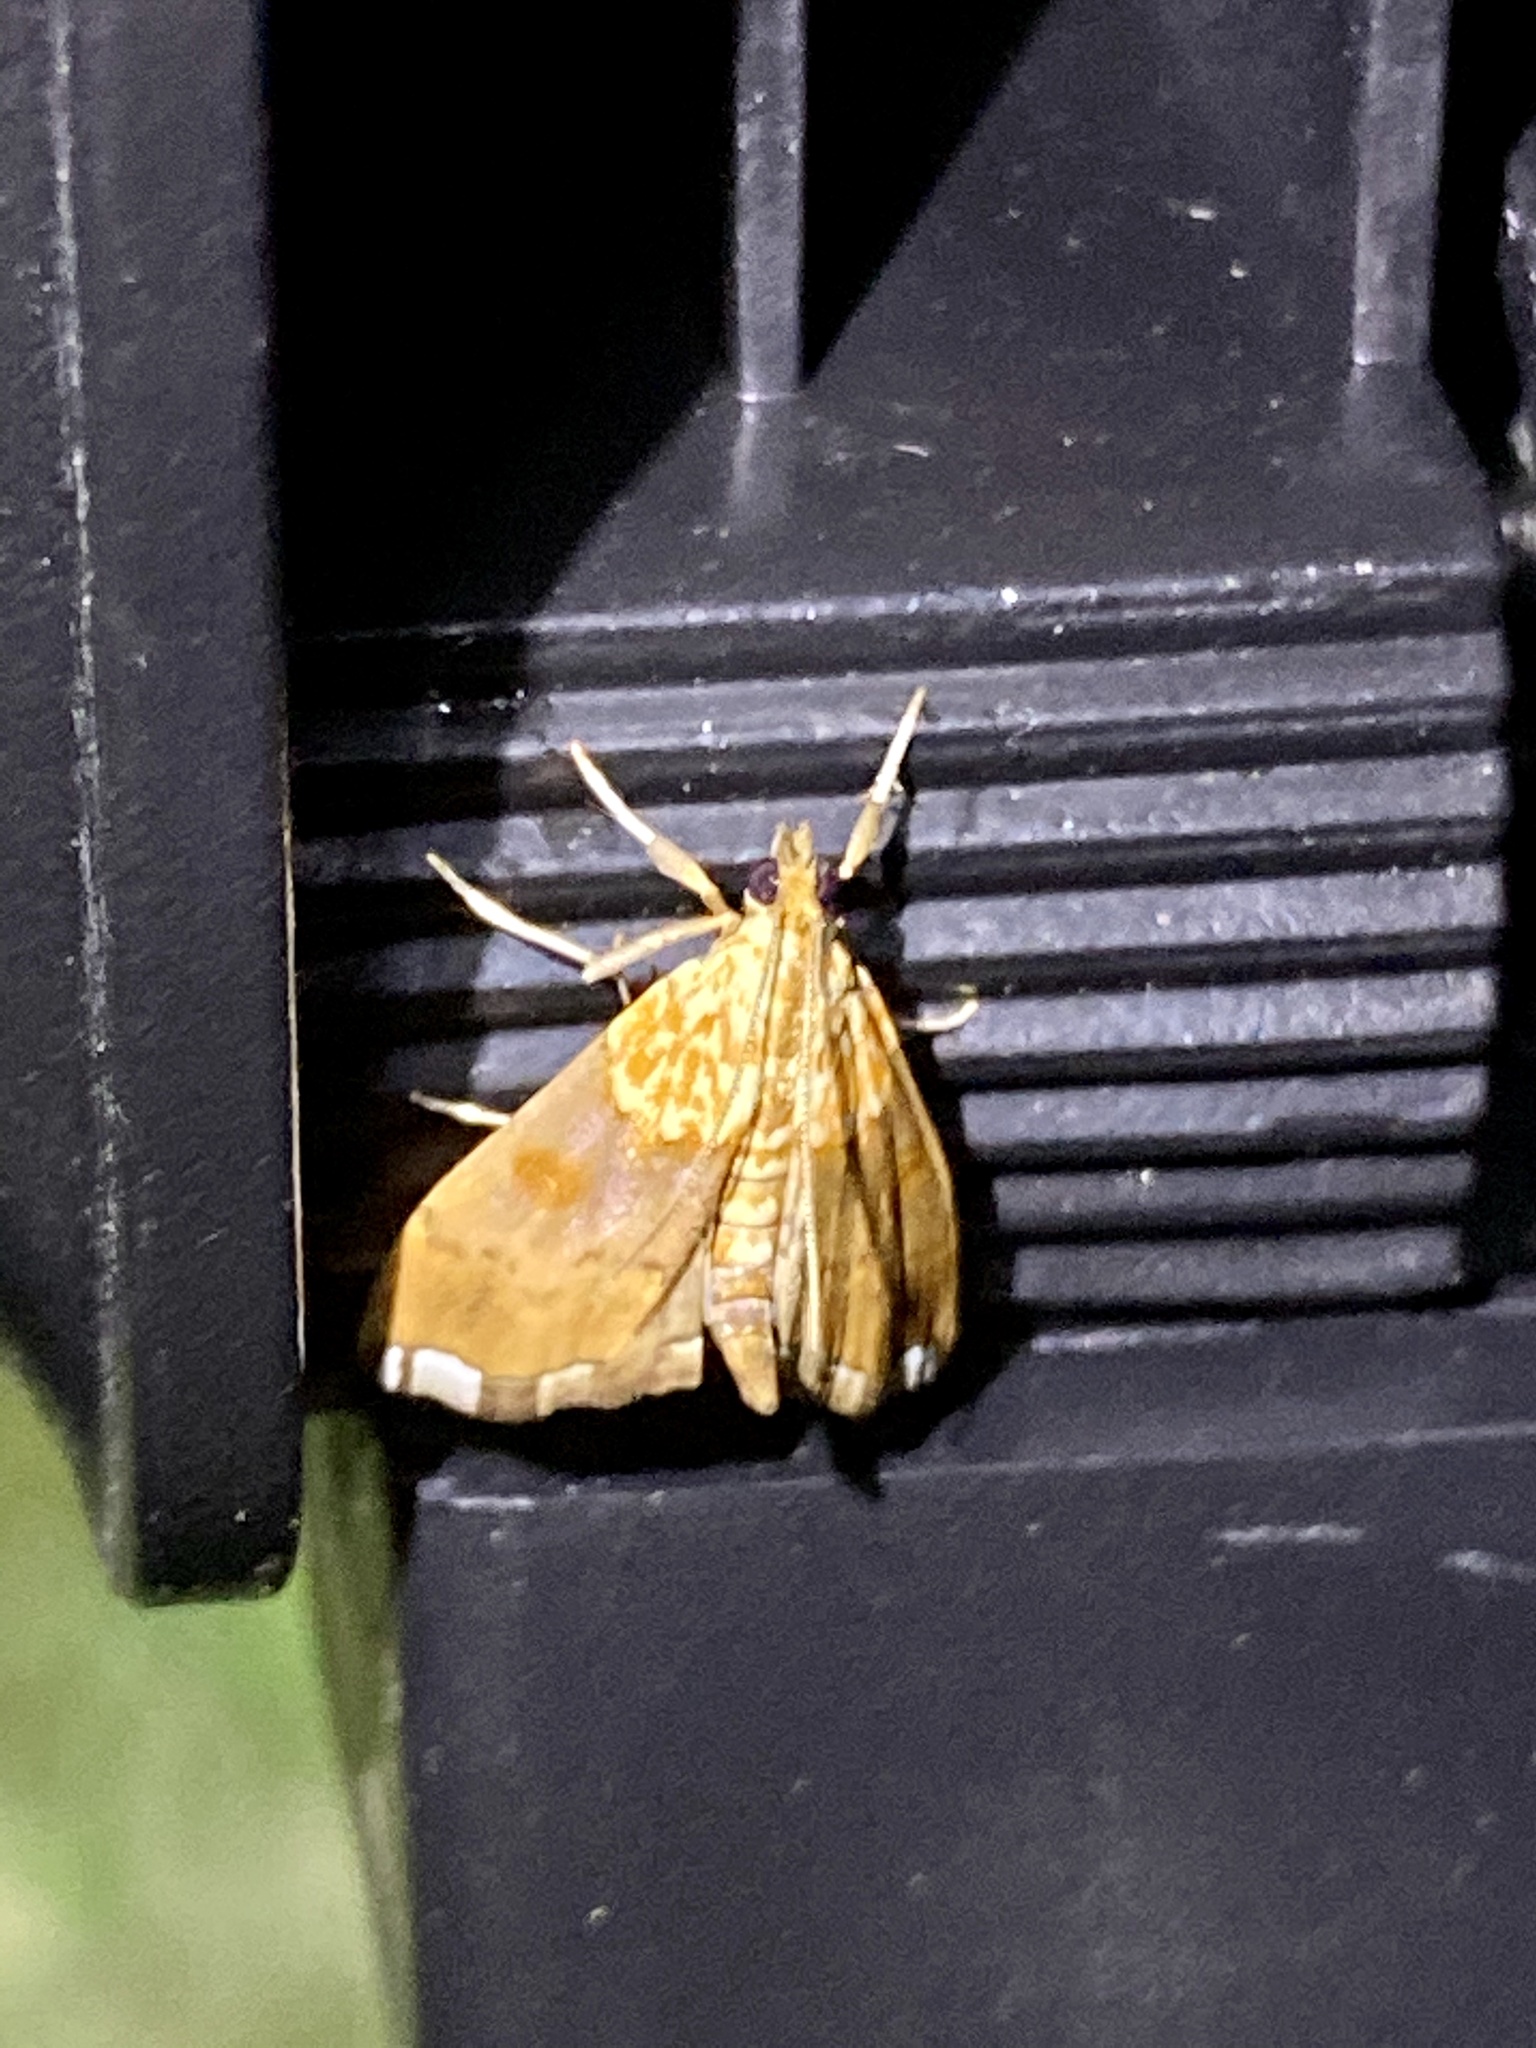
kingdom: Animalia
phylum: Arthropoda
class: Insecta
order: Lepidoptera
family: Crambidae
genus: Agrotera
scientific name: Agrotera nemoralis
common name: Beautiful pearl
